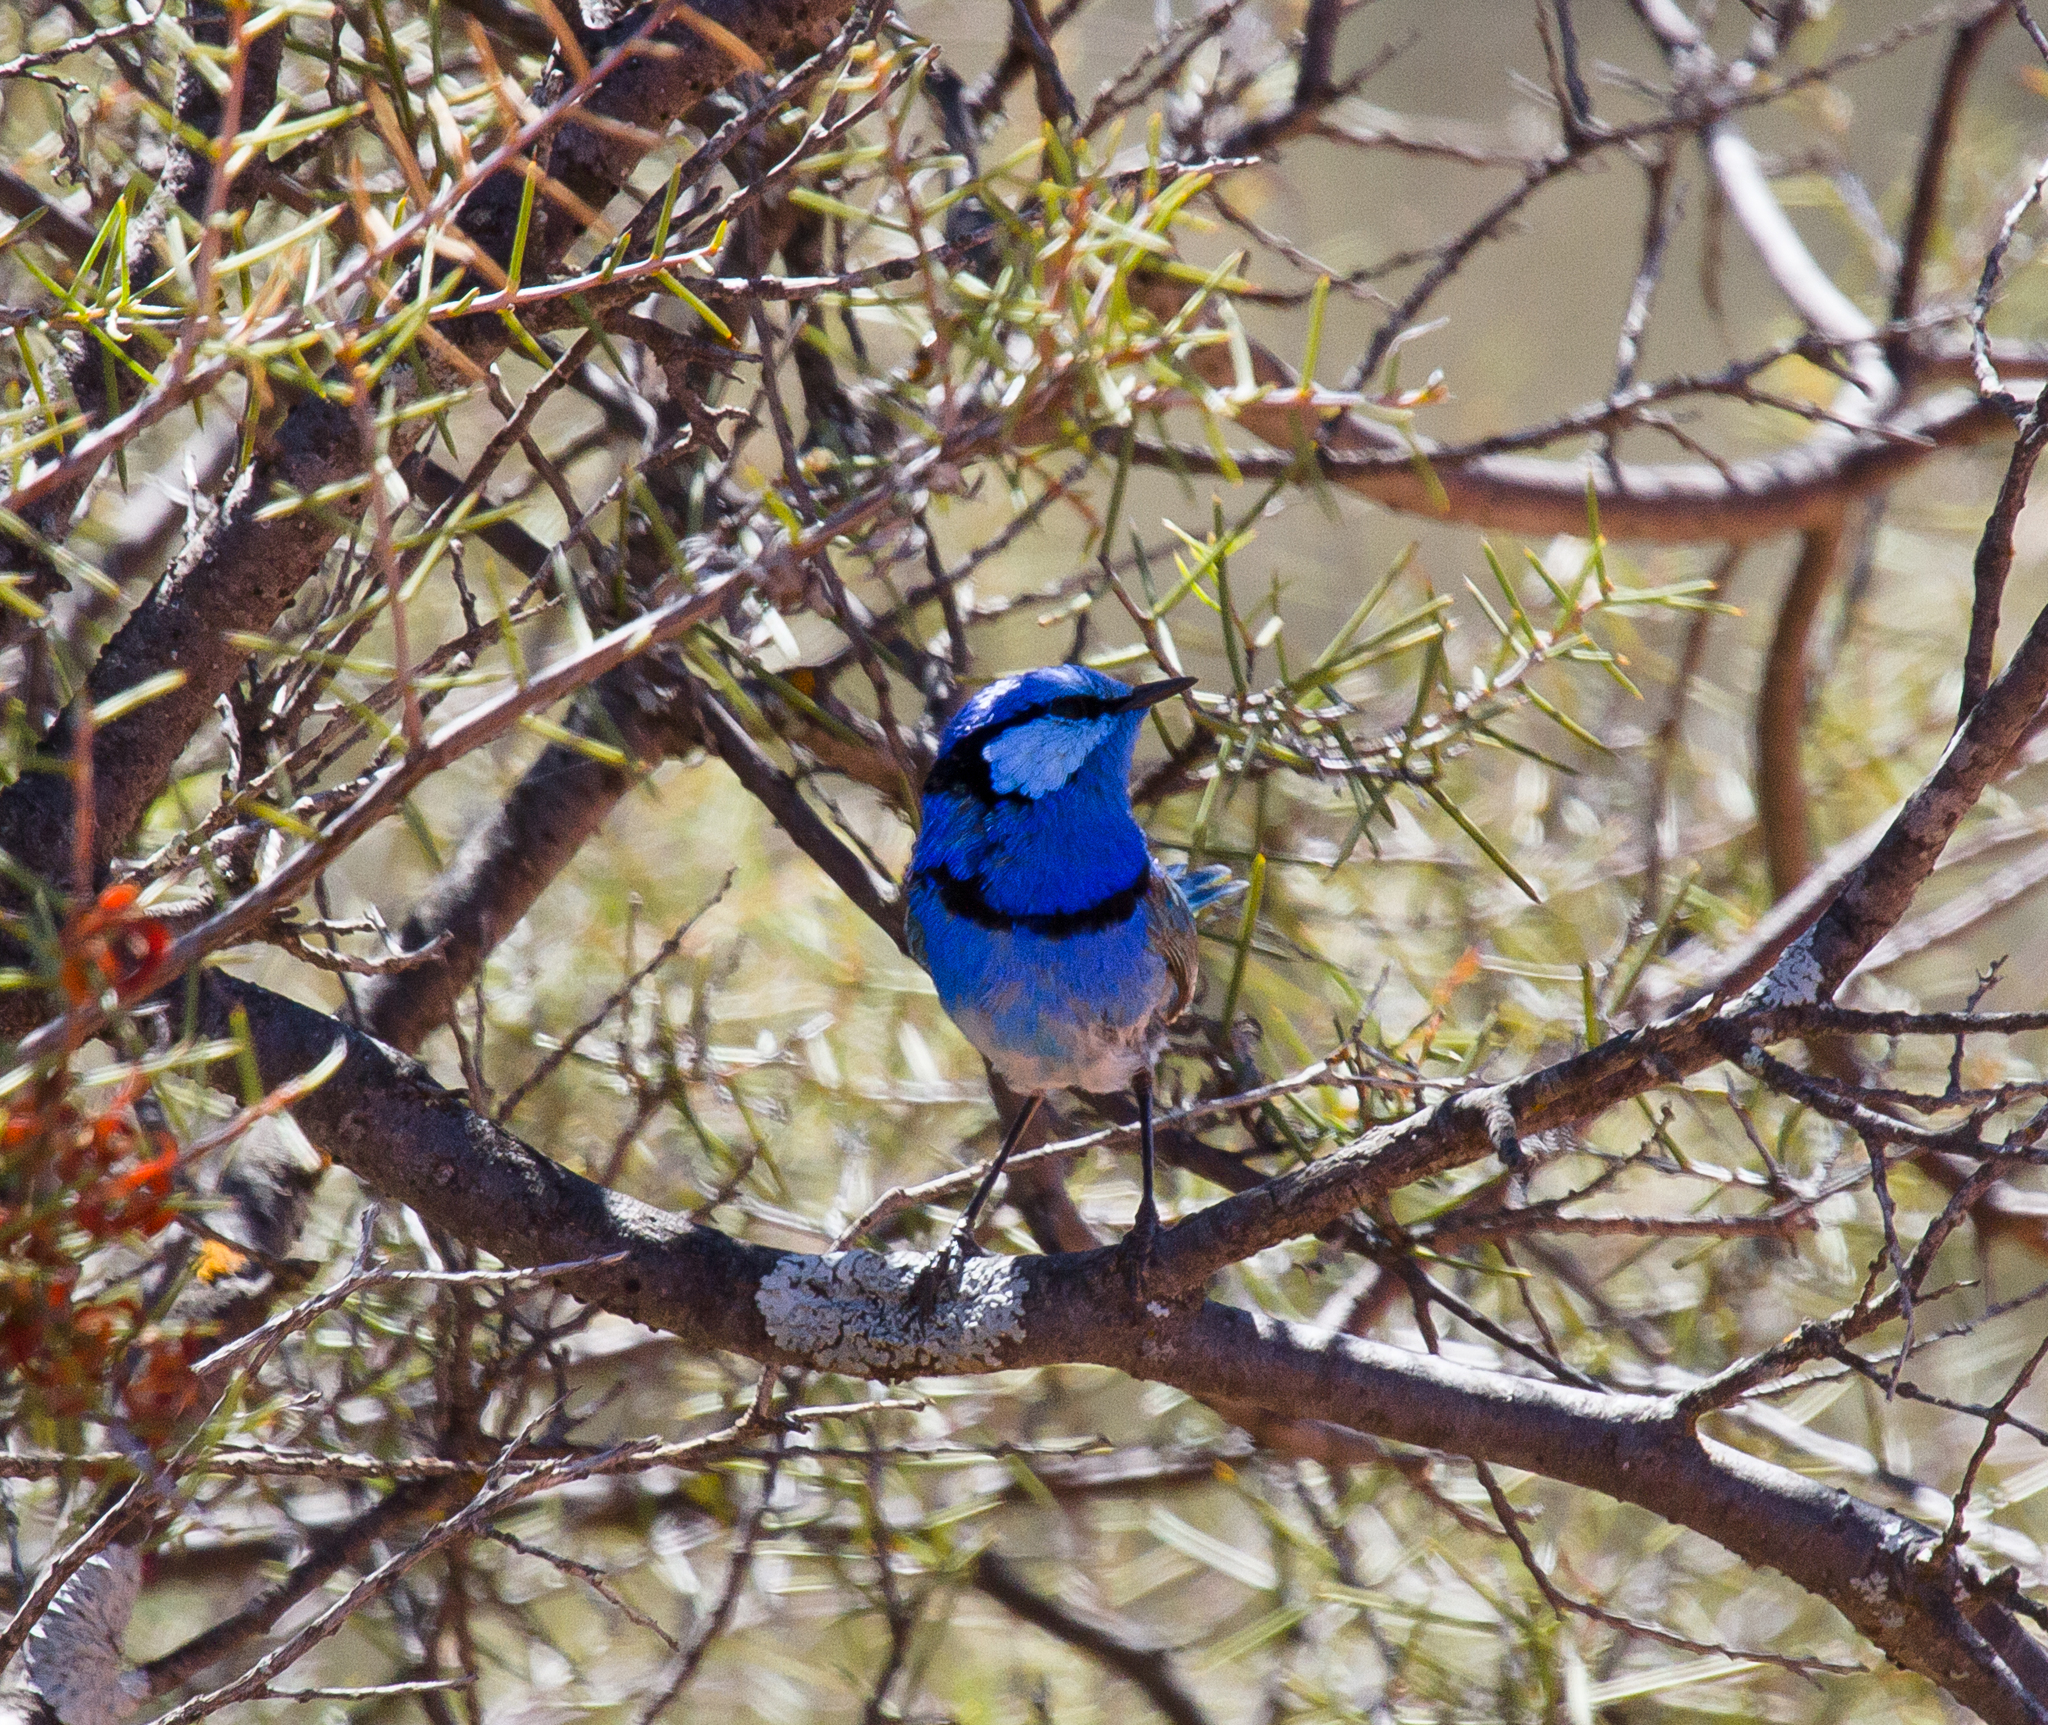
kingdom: Animalia
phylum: Chordata
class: Aves
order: Passeriformes
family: Maluridae
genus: Malurus
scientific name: Malurus splendens
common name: Splendid fairywren
